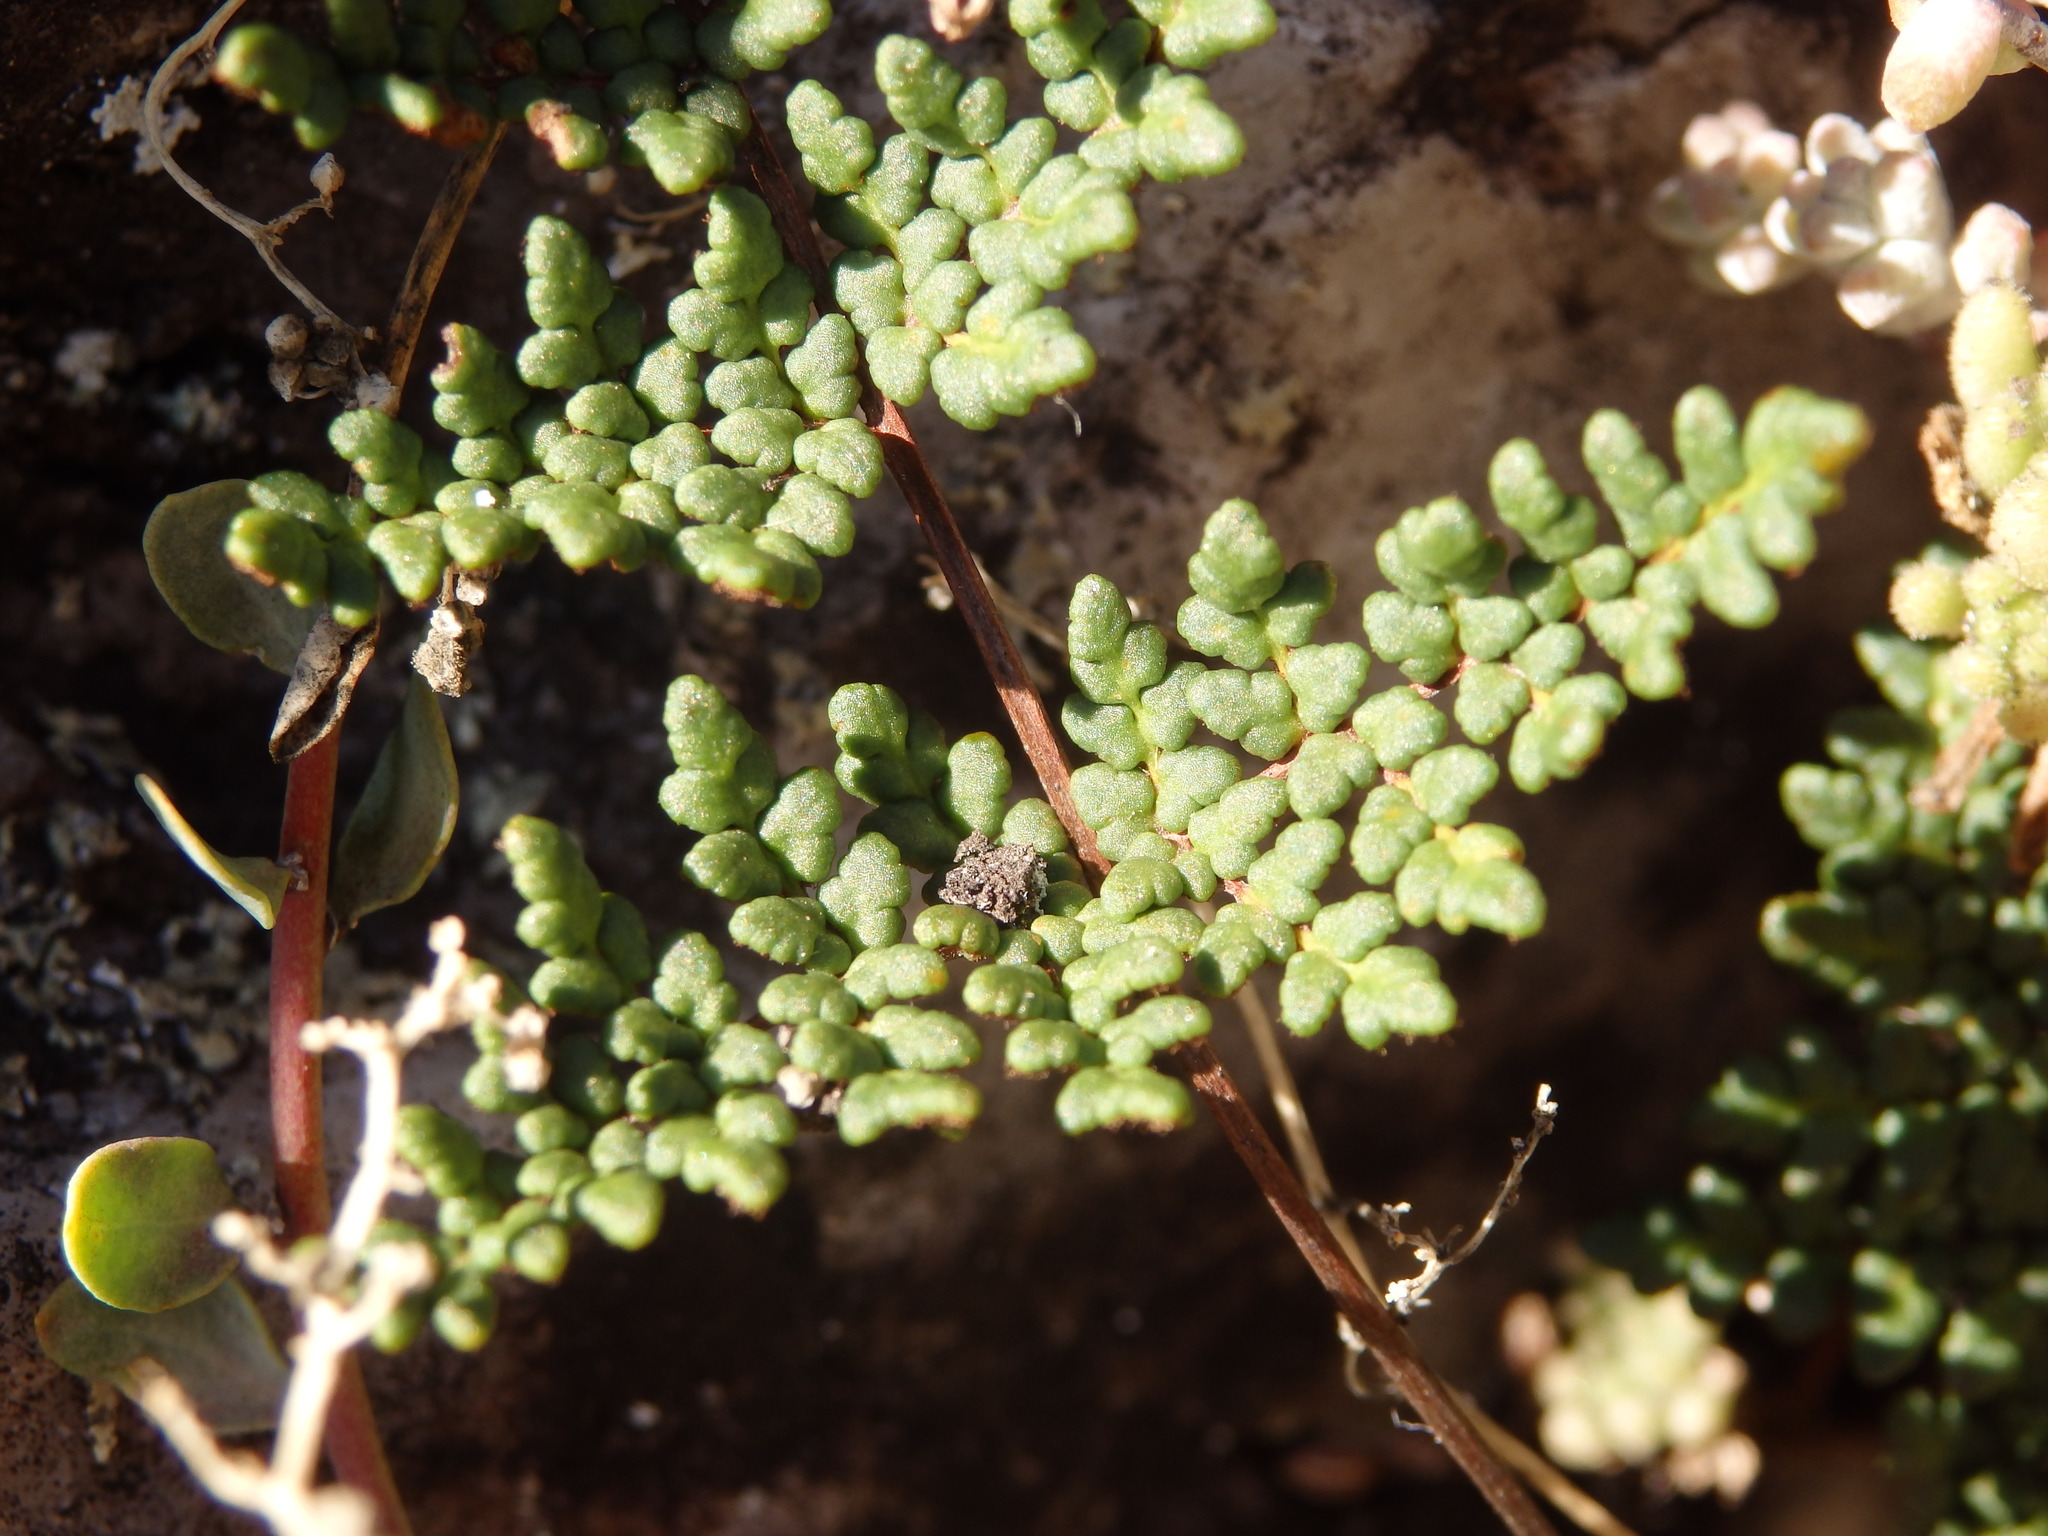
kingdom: Plantae
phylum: Tracheophyta
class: Polypodiopsida
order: Polypodiales
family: Pteridaceae
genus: Oeosporangium
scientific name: Oeosporangium hispanicum
